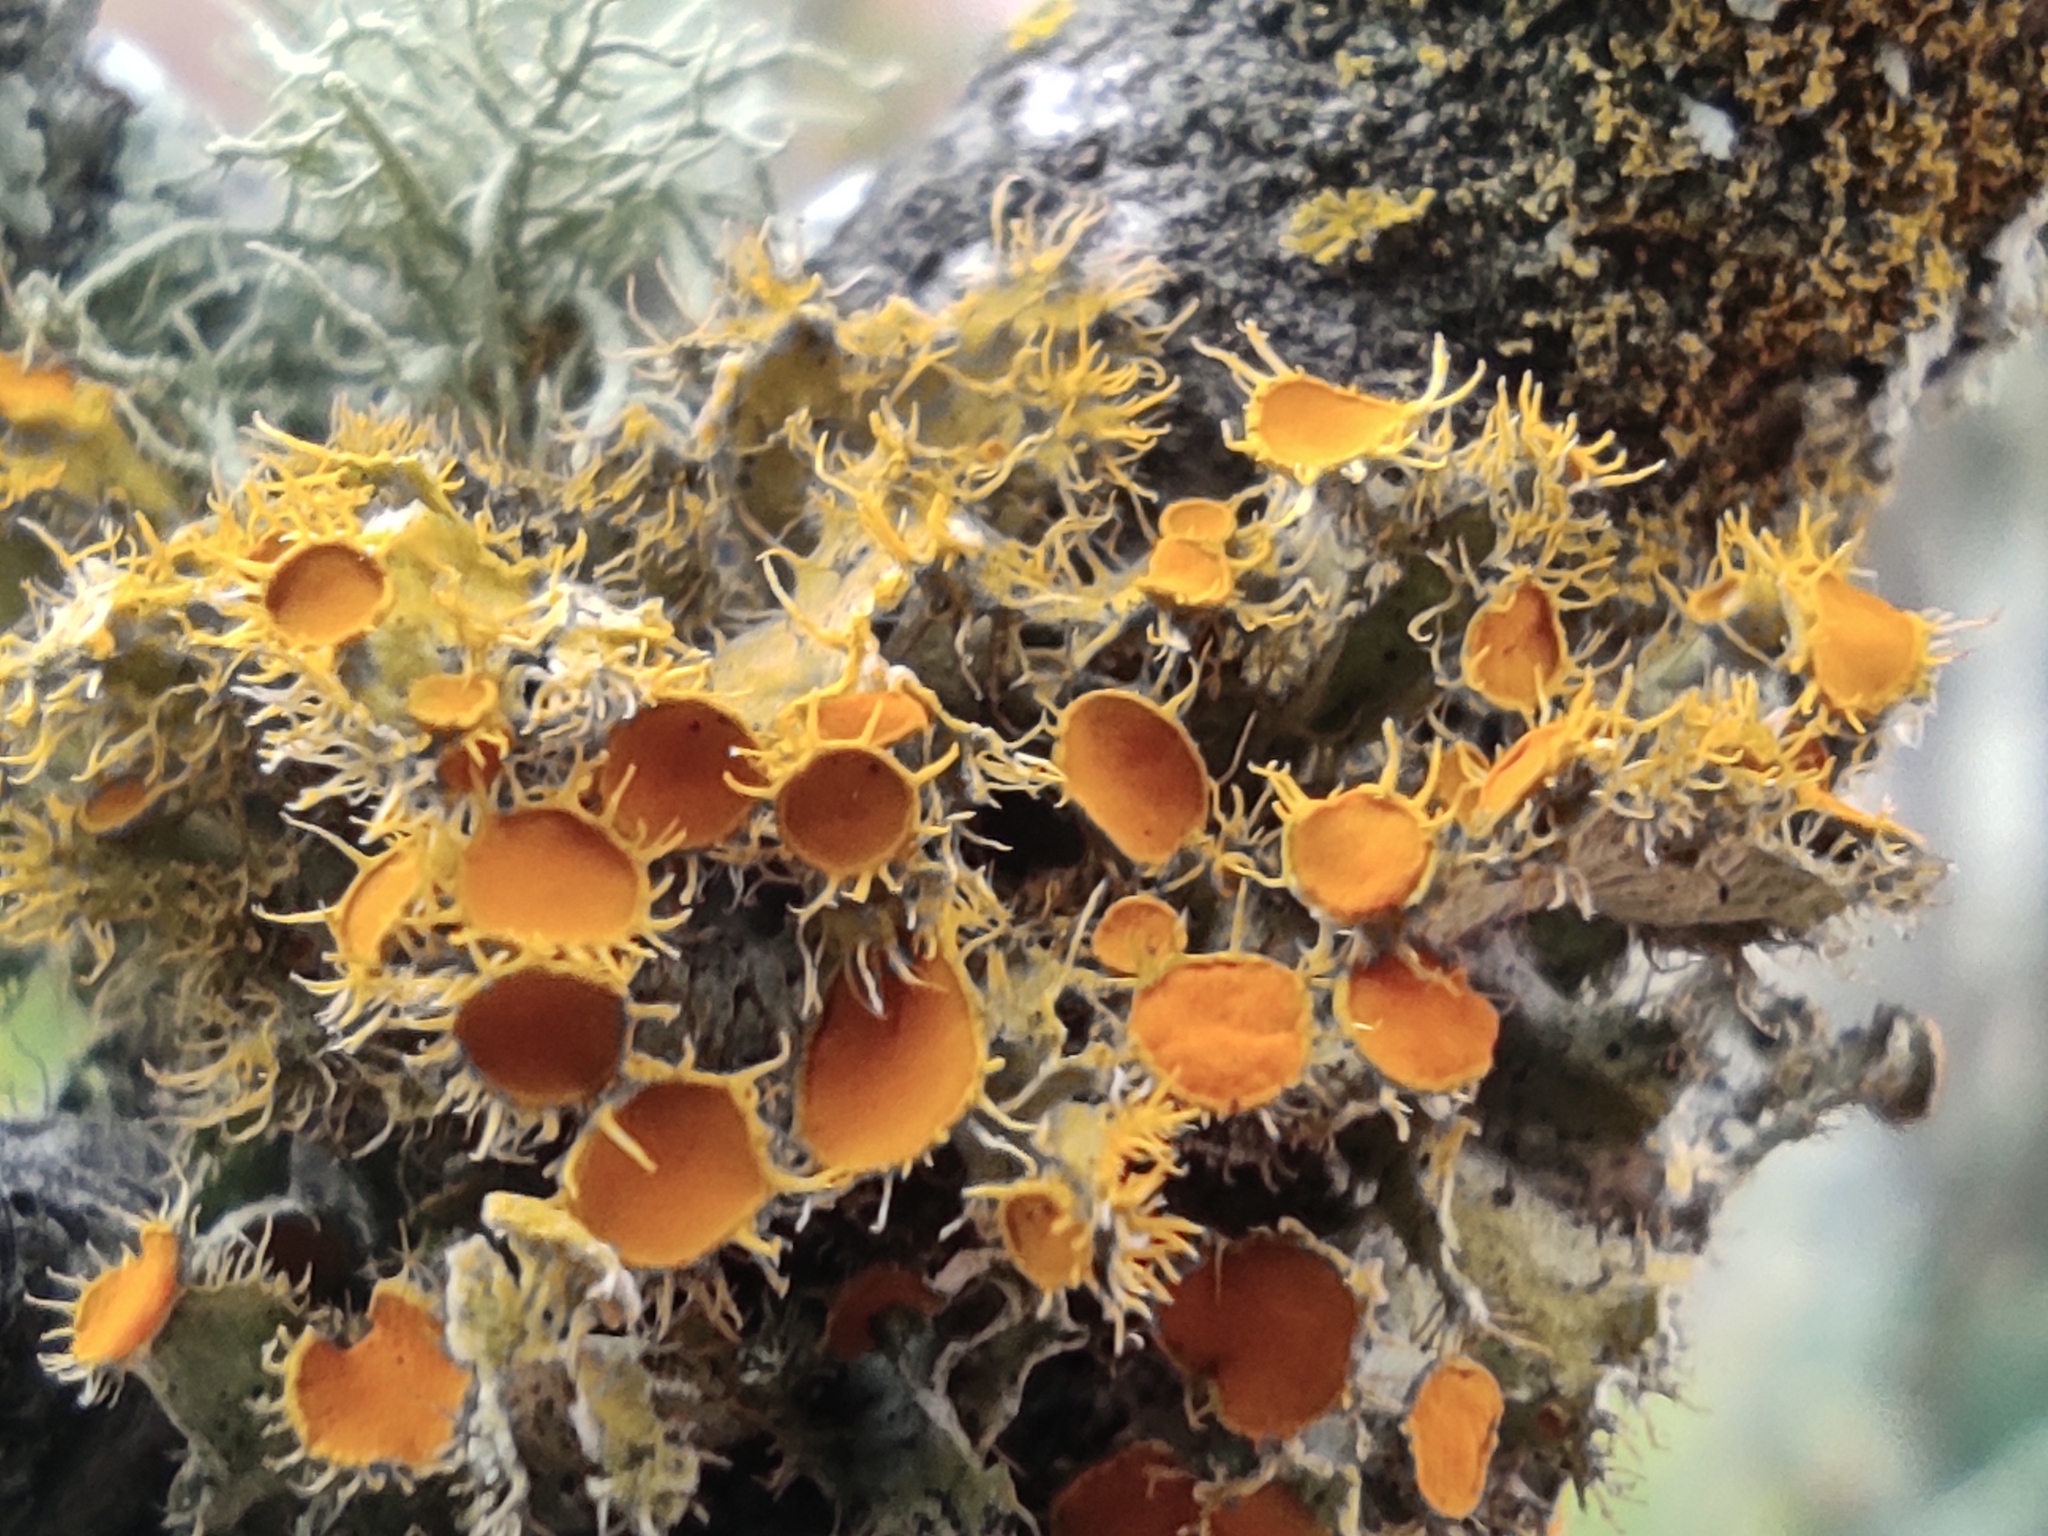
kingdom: Fungi
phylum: Ascomycota
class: Lecanoromycetes
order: Teloschistales
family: Teloschistaceae
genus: Niorma
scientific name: Niorma chrysophthalma
